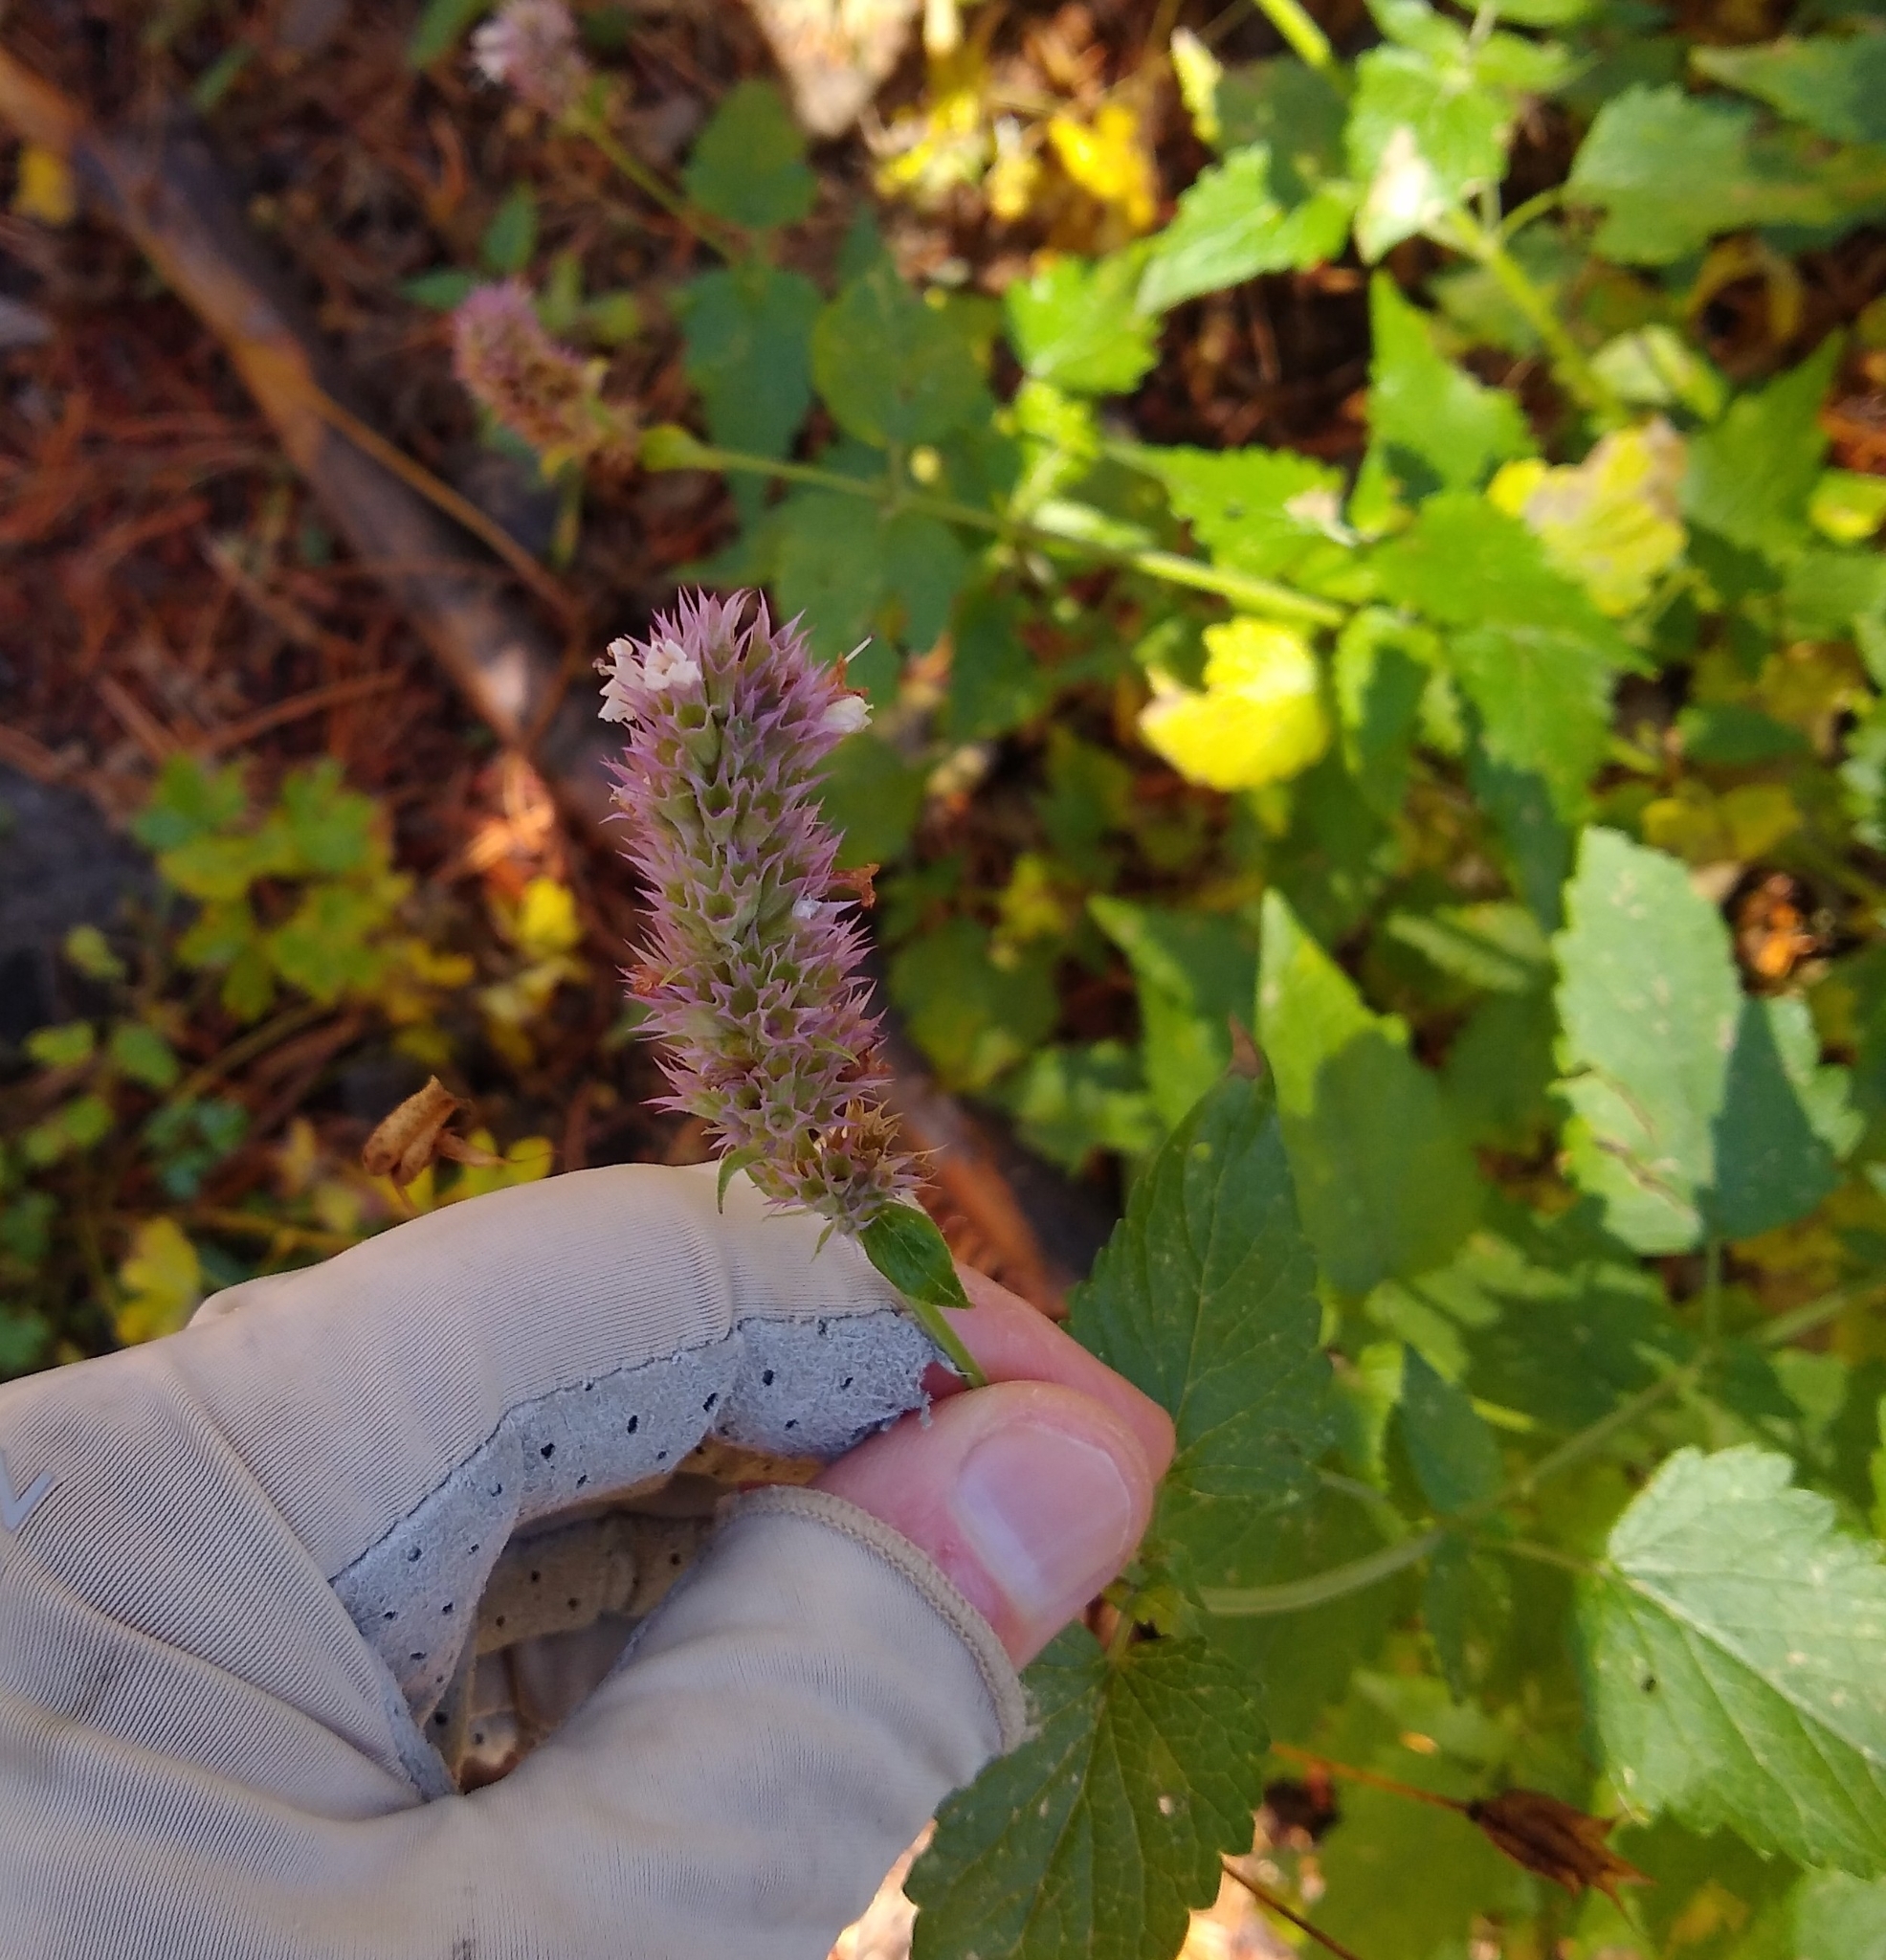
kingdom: Plantae
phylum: Tracheophyta
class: Magnoliopsida
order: Lamiales
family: Lamiaceae
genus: Agastache
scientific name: Agastache urticifolia
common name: Horsemint giant hyssop
